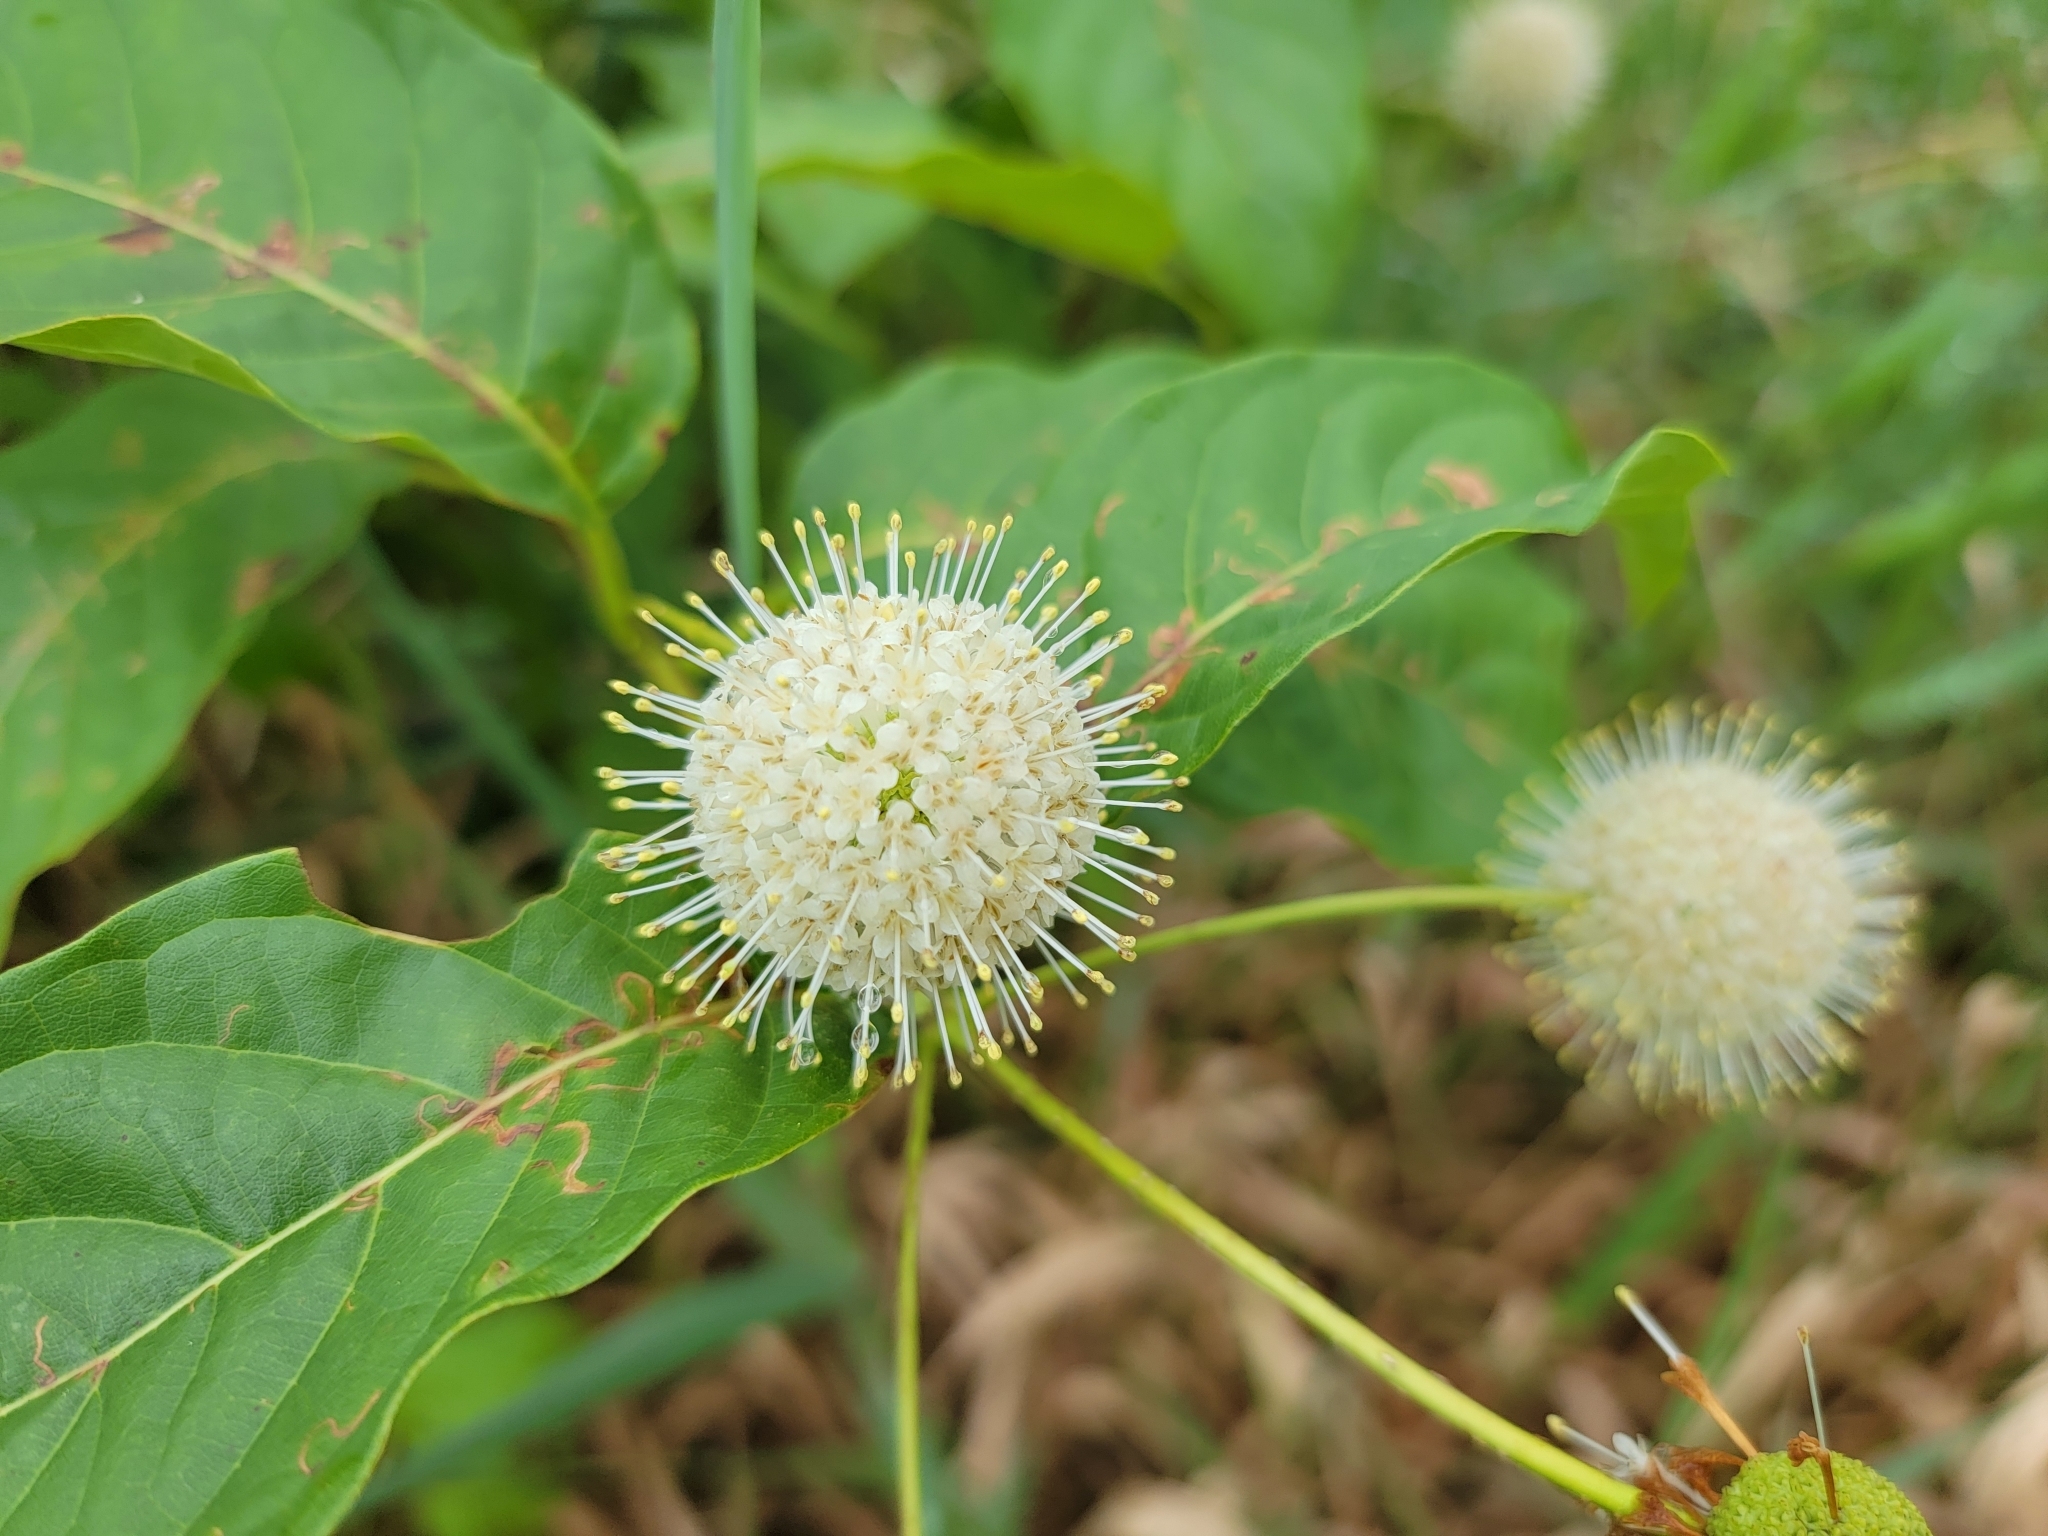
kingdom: Plantae
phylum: Tracheophyta
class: Magnoliopsida
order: Gentianales
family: Rubiaceae
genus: Cephalanthus
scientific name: Cephalanthus occidentalis
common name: Button-willow
